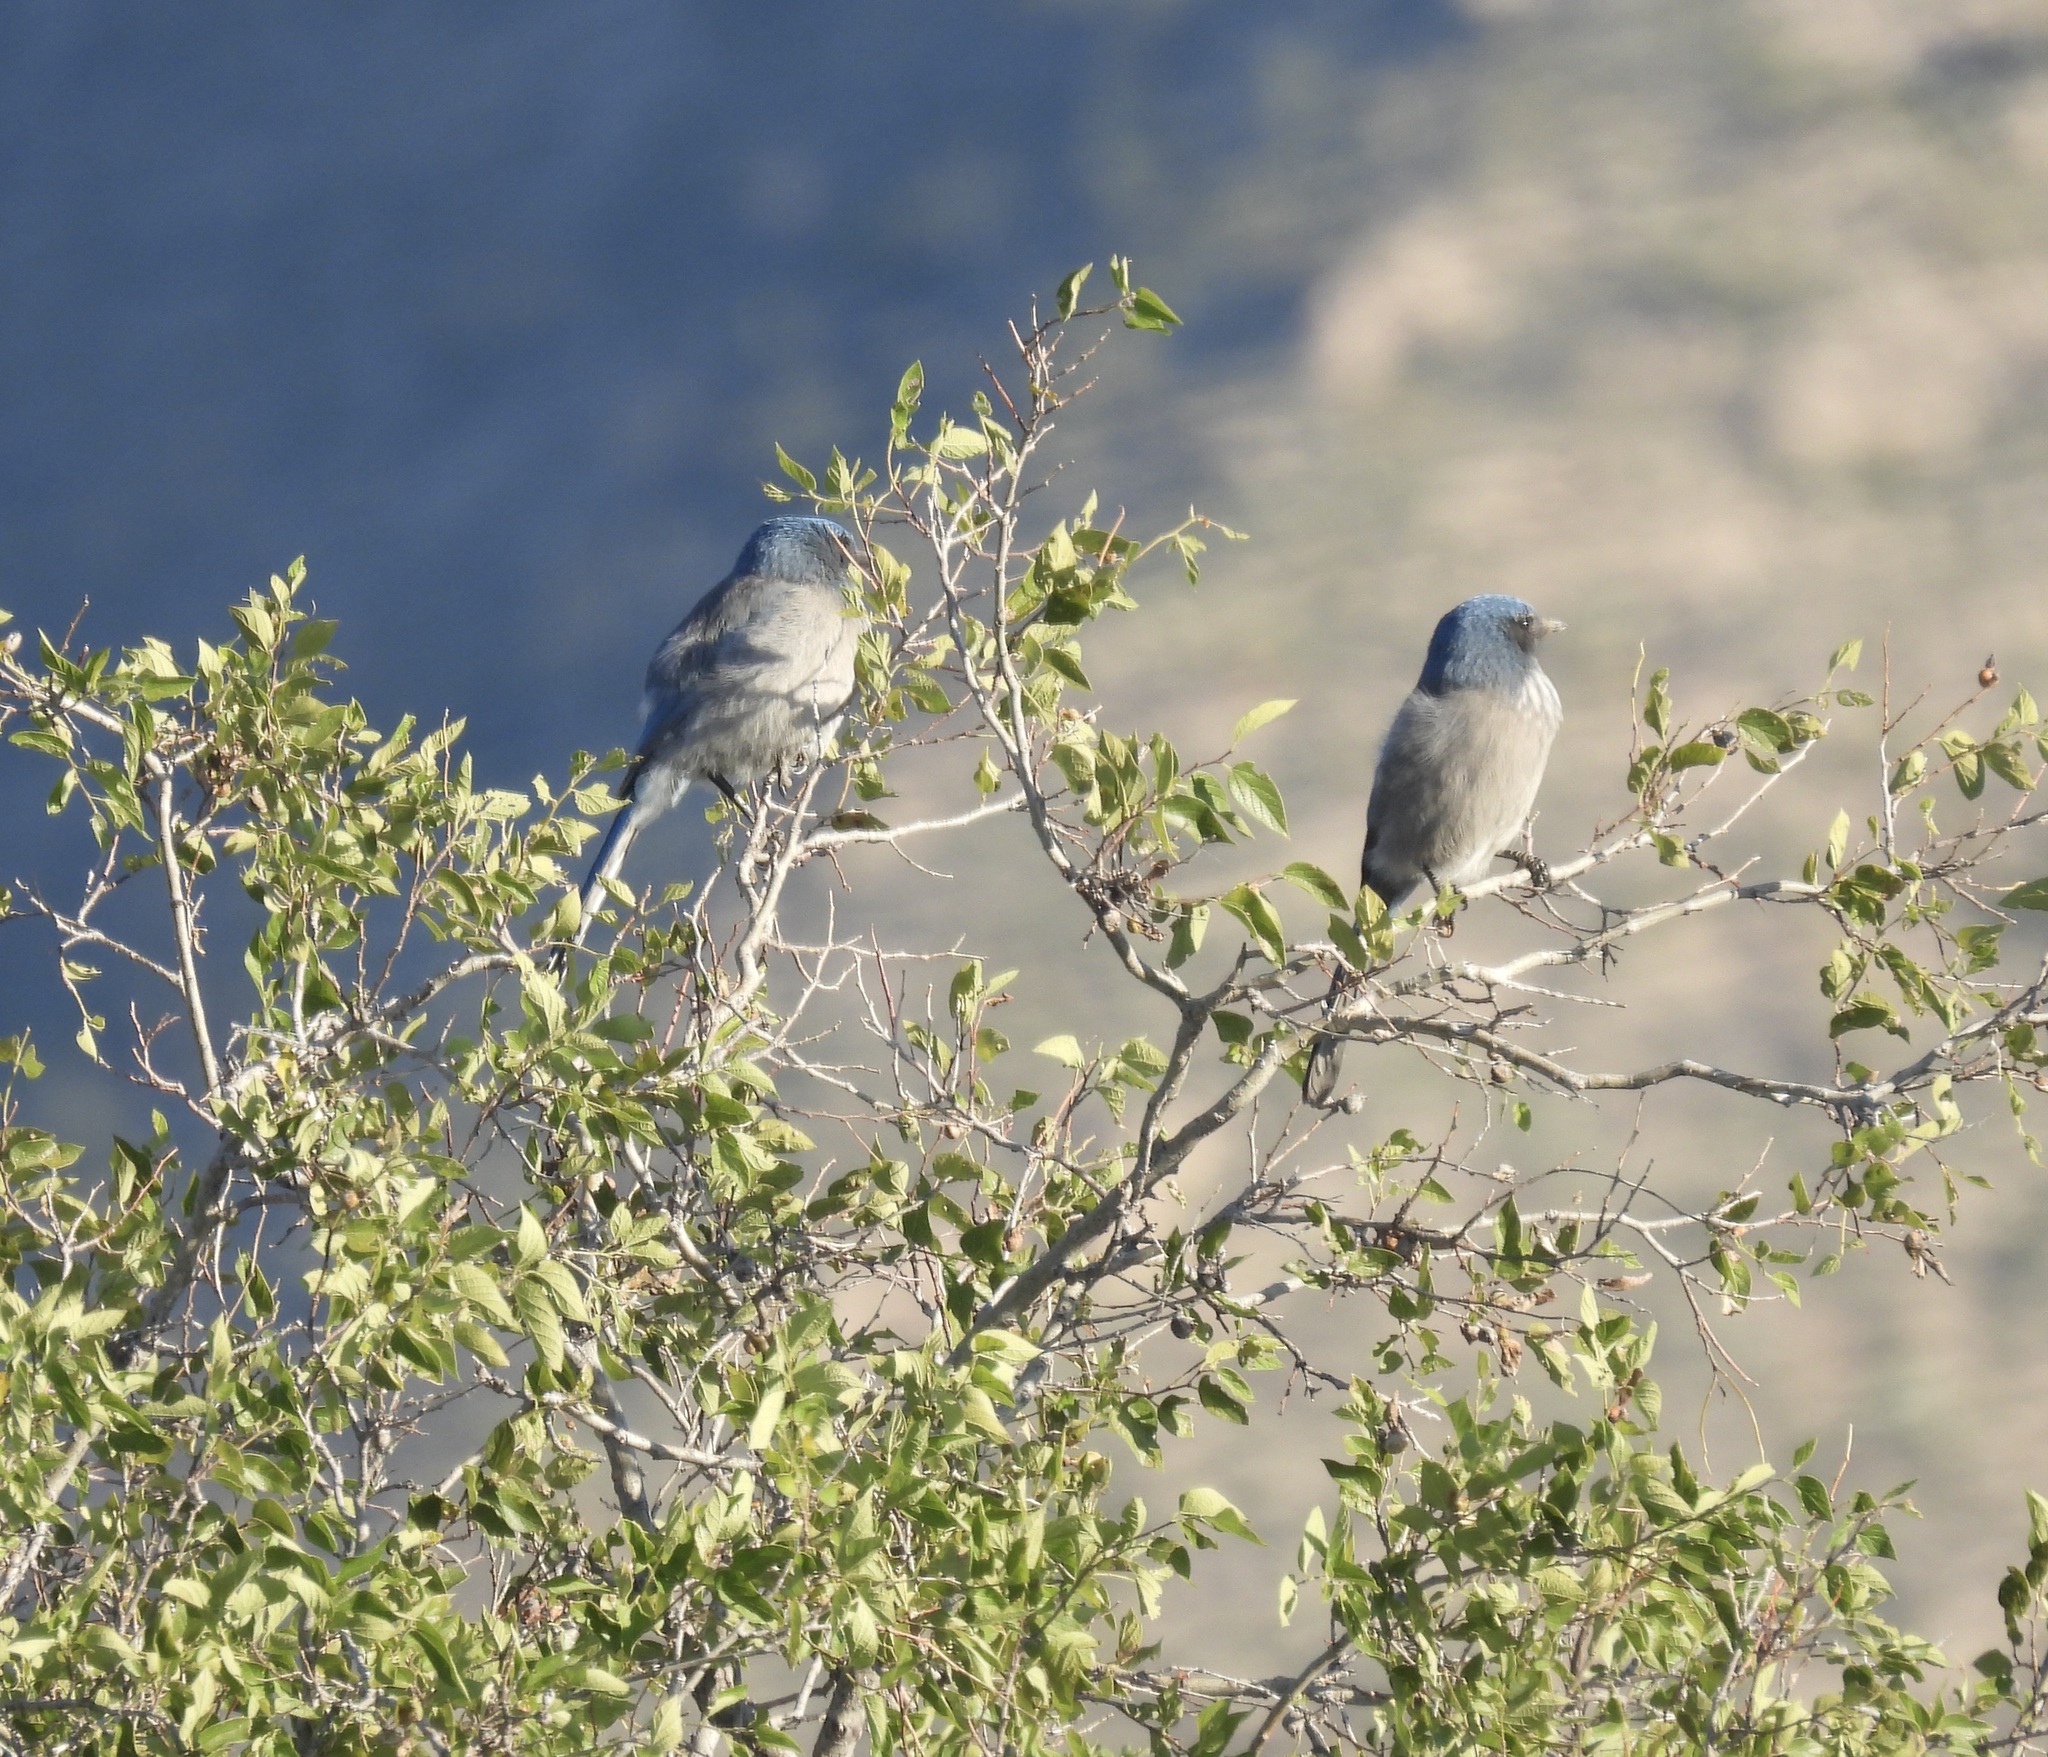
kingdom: Animalia
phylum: Chordata
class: Aves
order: Passeriformes
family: Corvidae
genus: Aphelocoma
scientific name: Aphelocoma woodhouseii
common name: Woodhouse's scrub-jay
